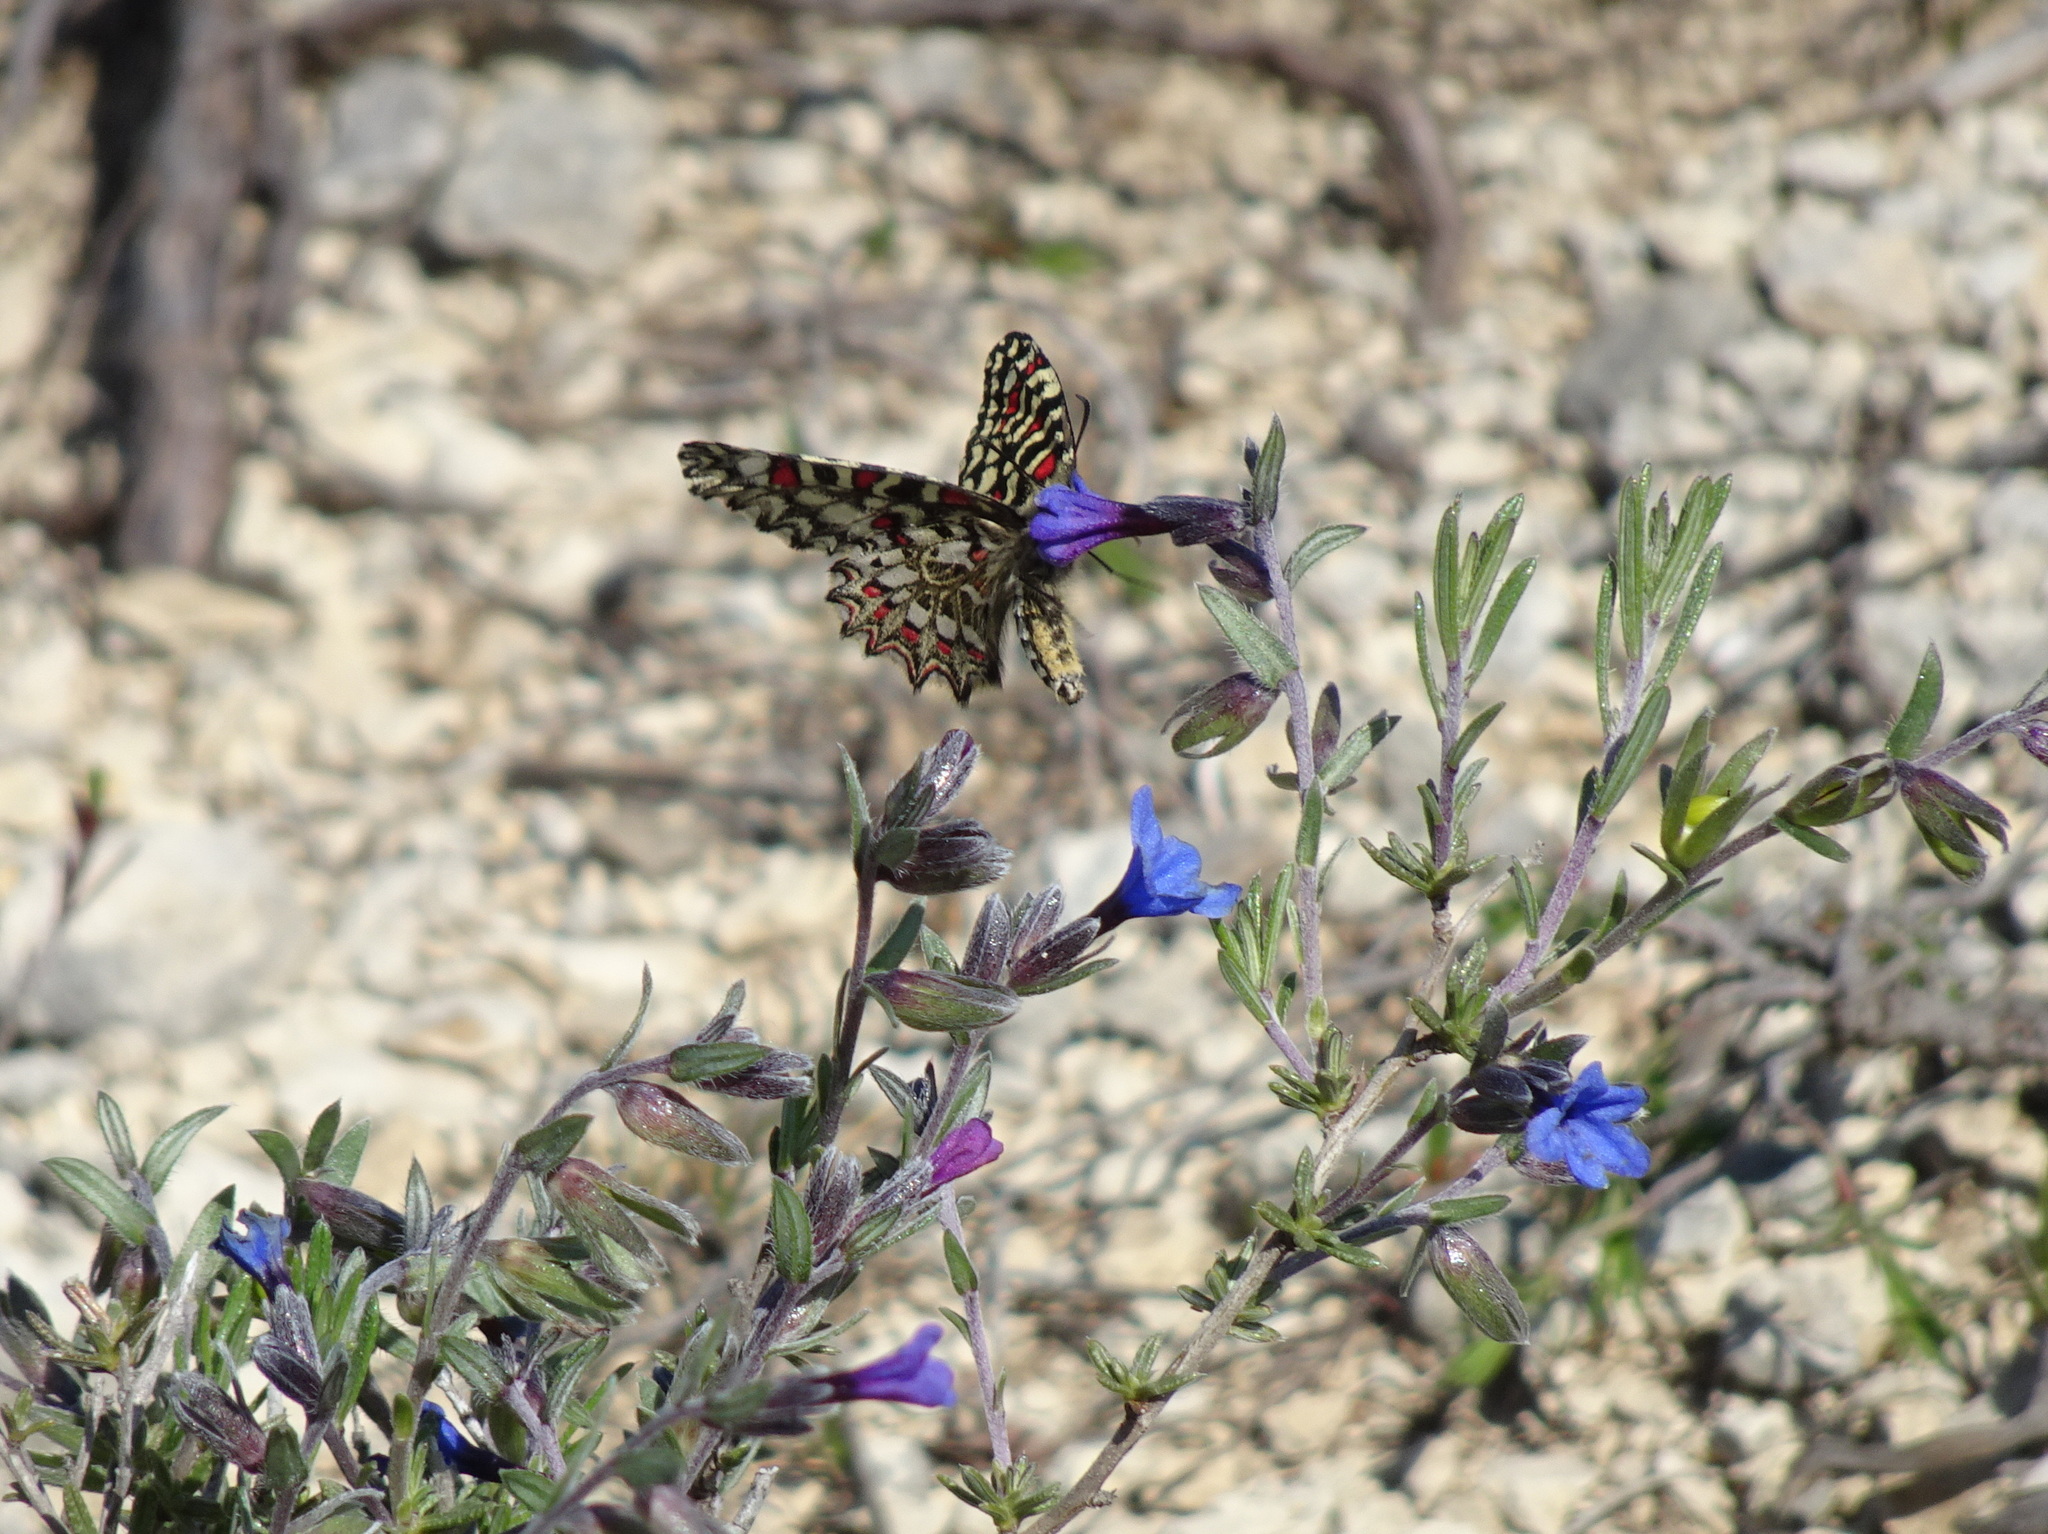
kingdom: Animalia
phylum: Arthropoda
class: Insecta
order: Lepidoptera
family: Papilionidae
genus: Zerynthia
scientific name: Zerynthia rumina
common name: Spanish festoon
